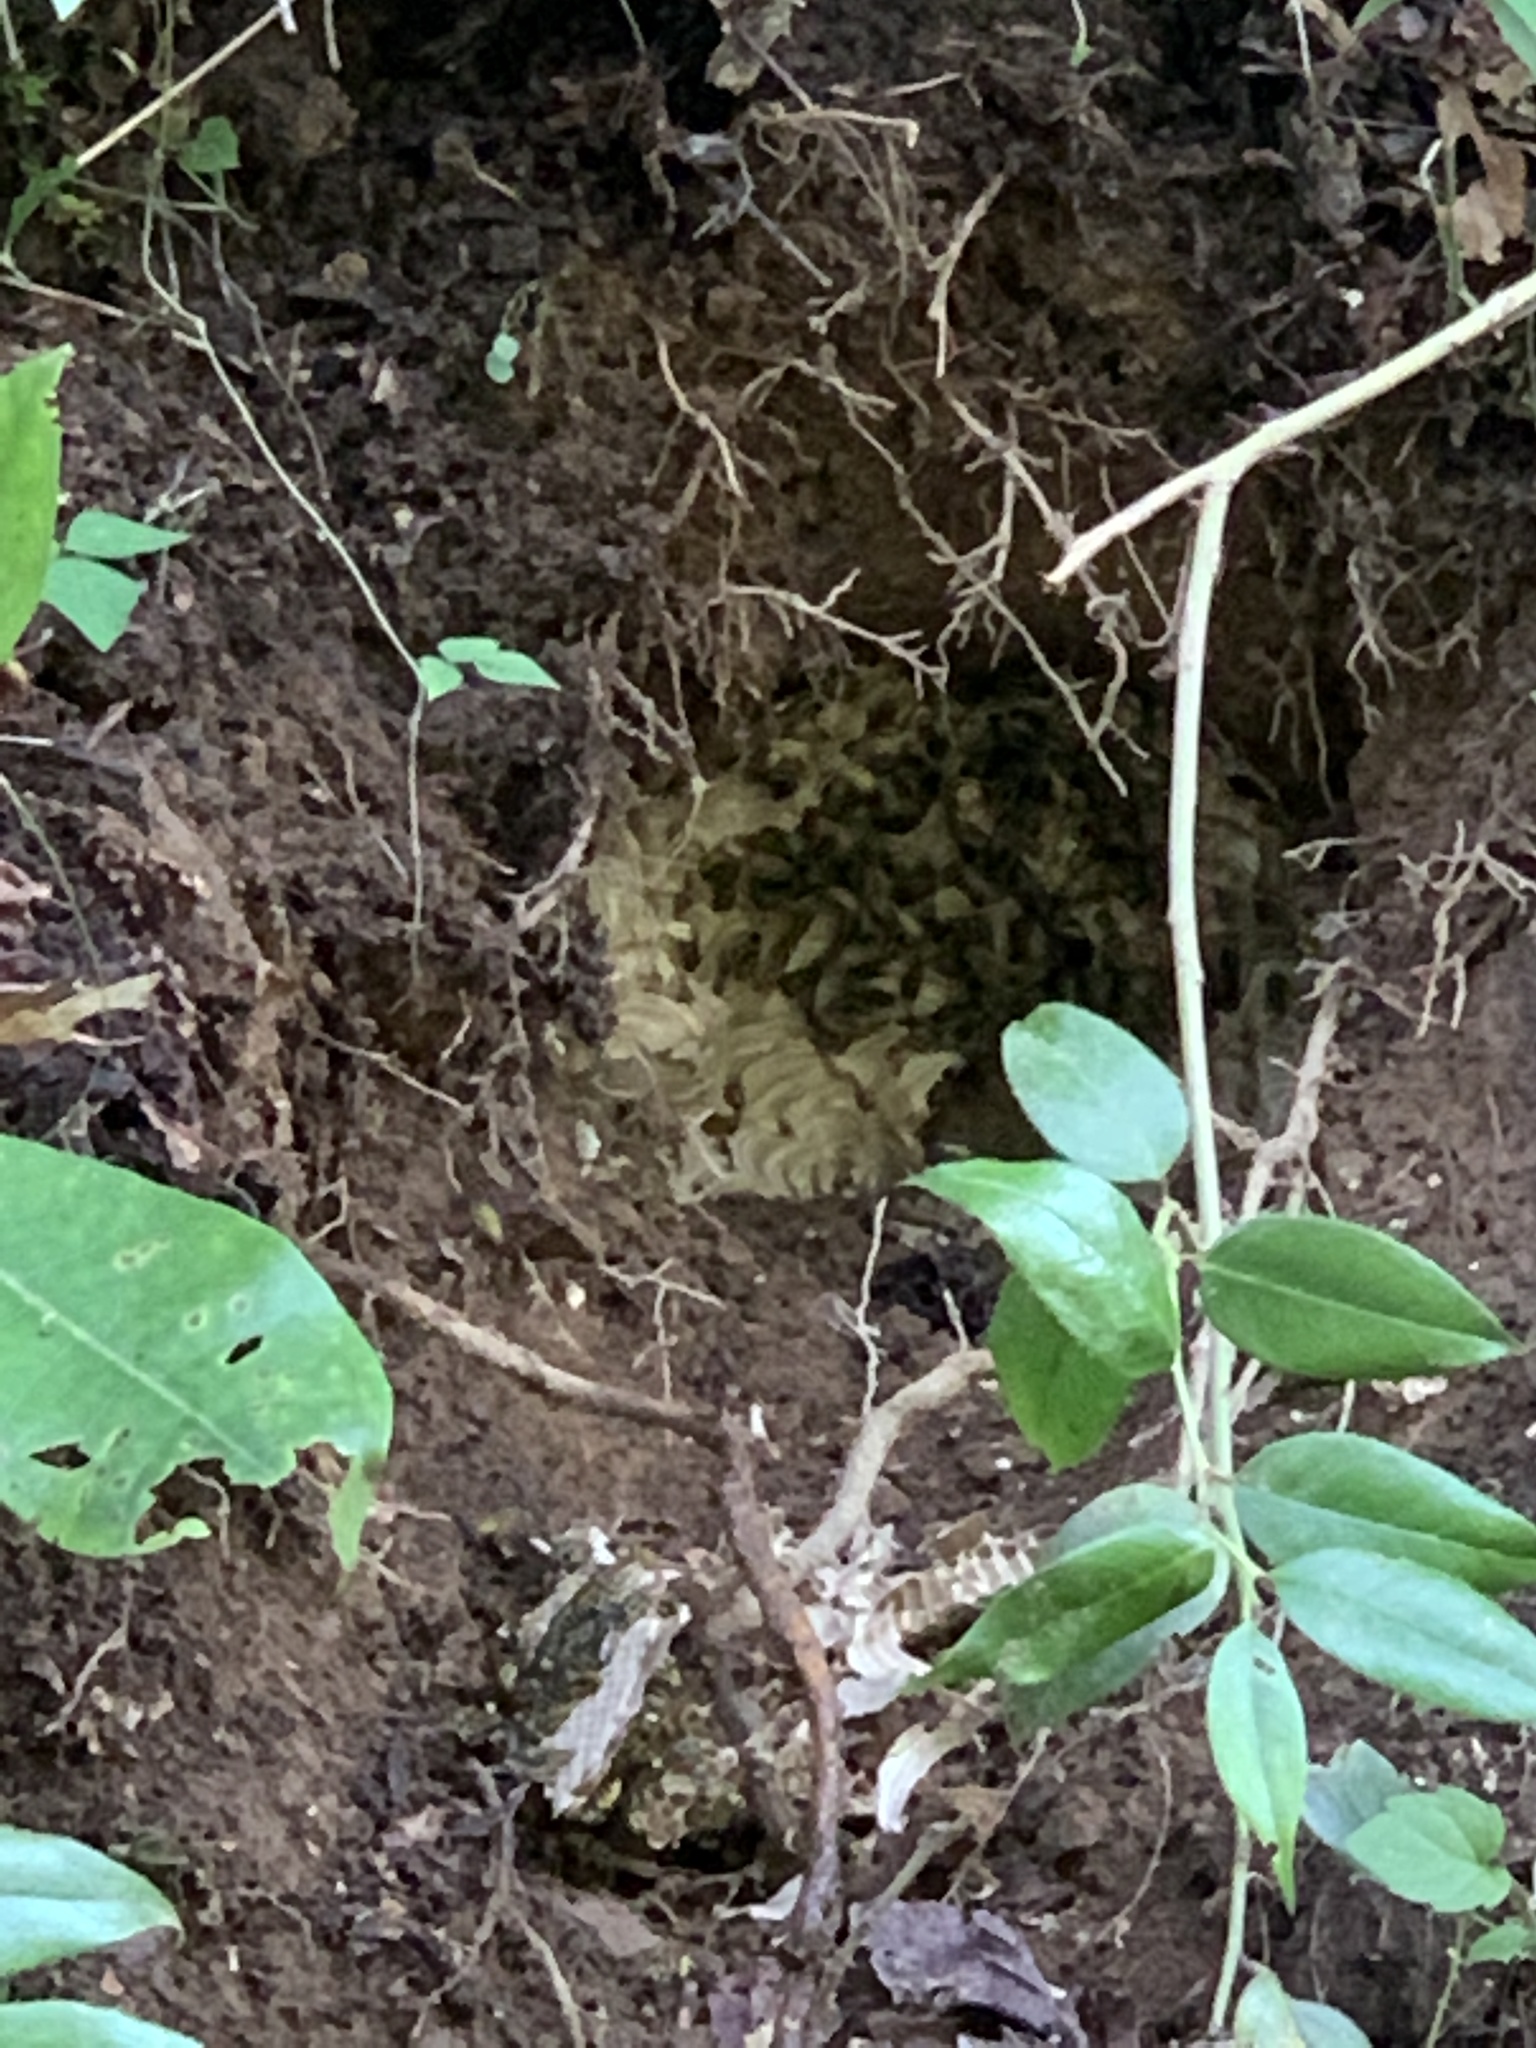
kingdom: Animalia
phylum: Arthropoda
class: Insecta
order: Hymenoptera
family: Vespidae
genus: Vespula
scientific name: Vespula
